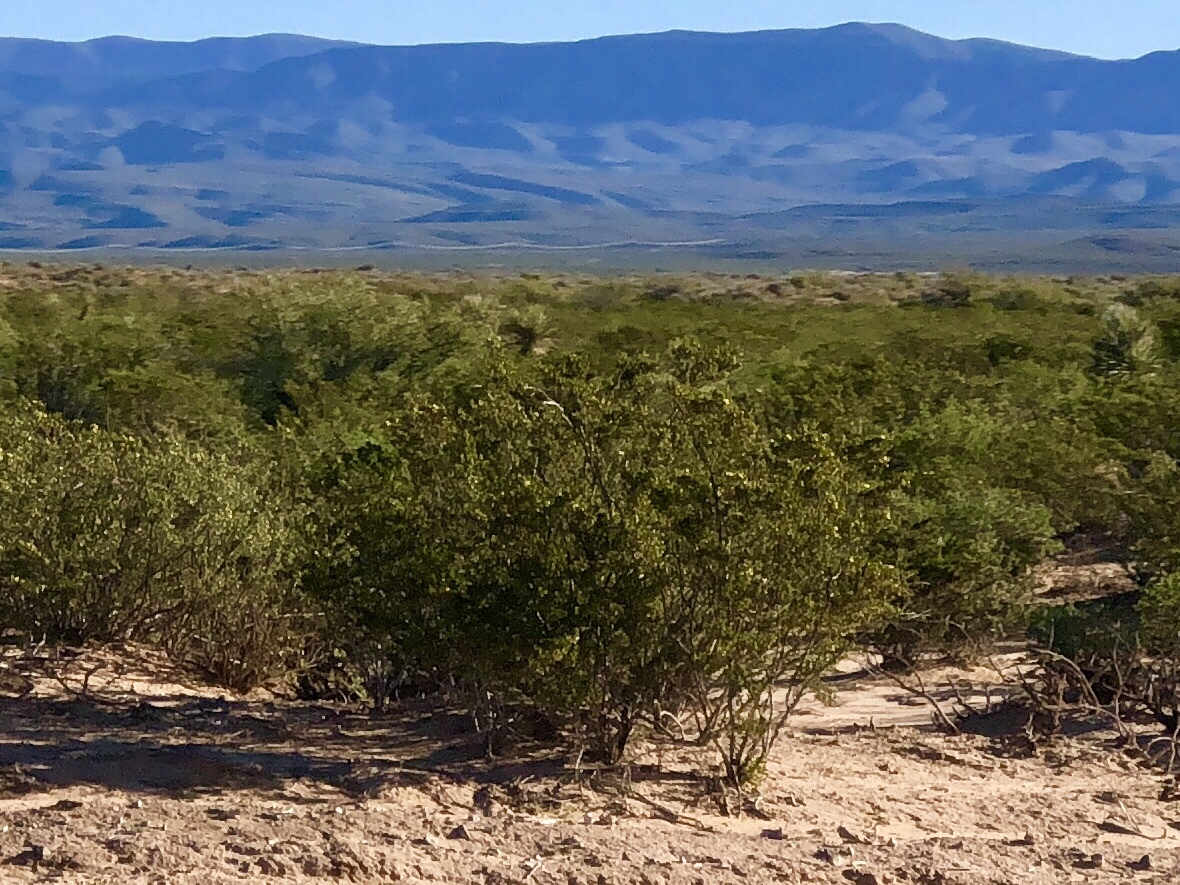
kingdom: Plantae
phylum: Tracheophyta
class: Magnoliopsida
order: Zygophyllales
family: Zygophyllaceae
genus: Larrea
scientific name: Larrea tridentata
